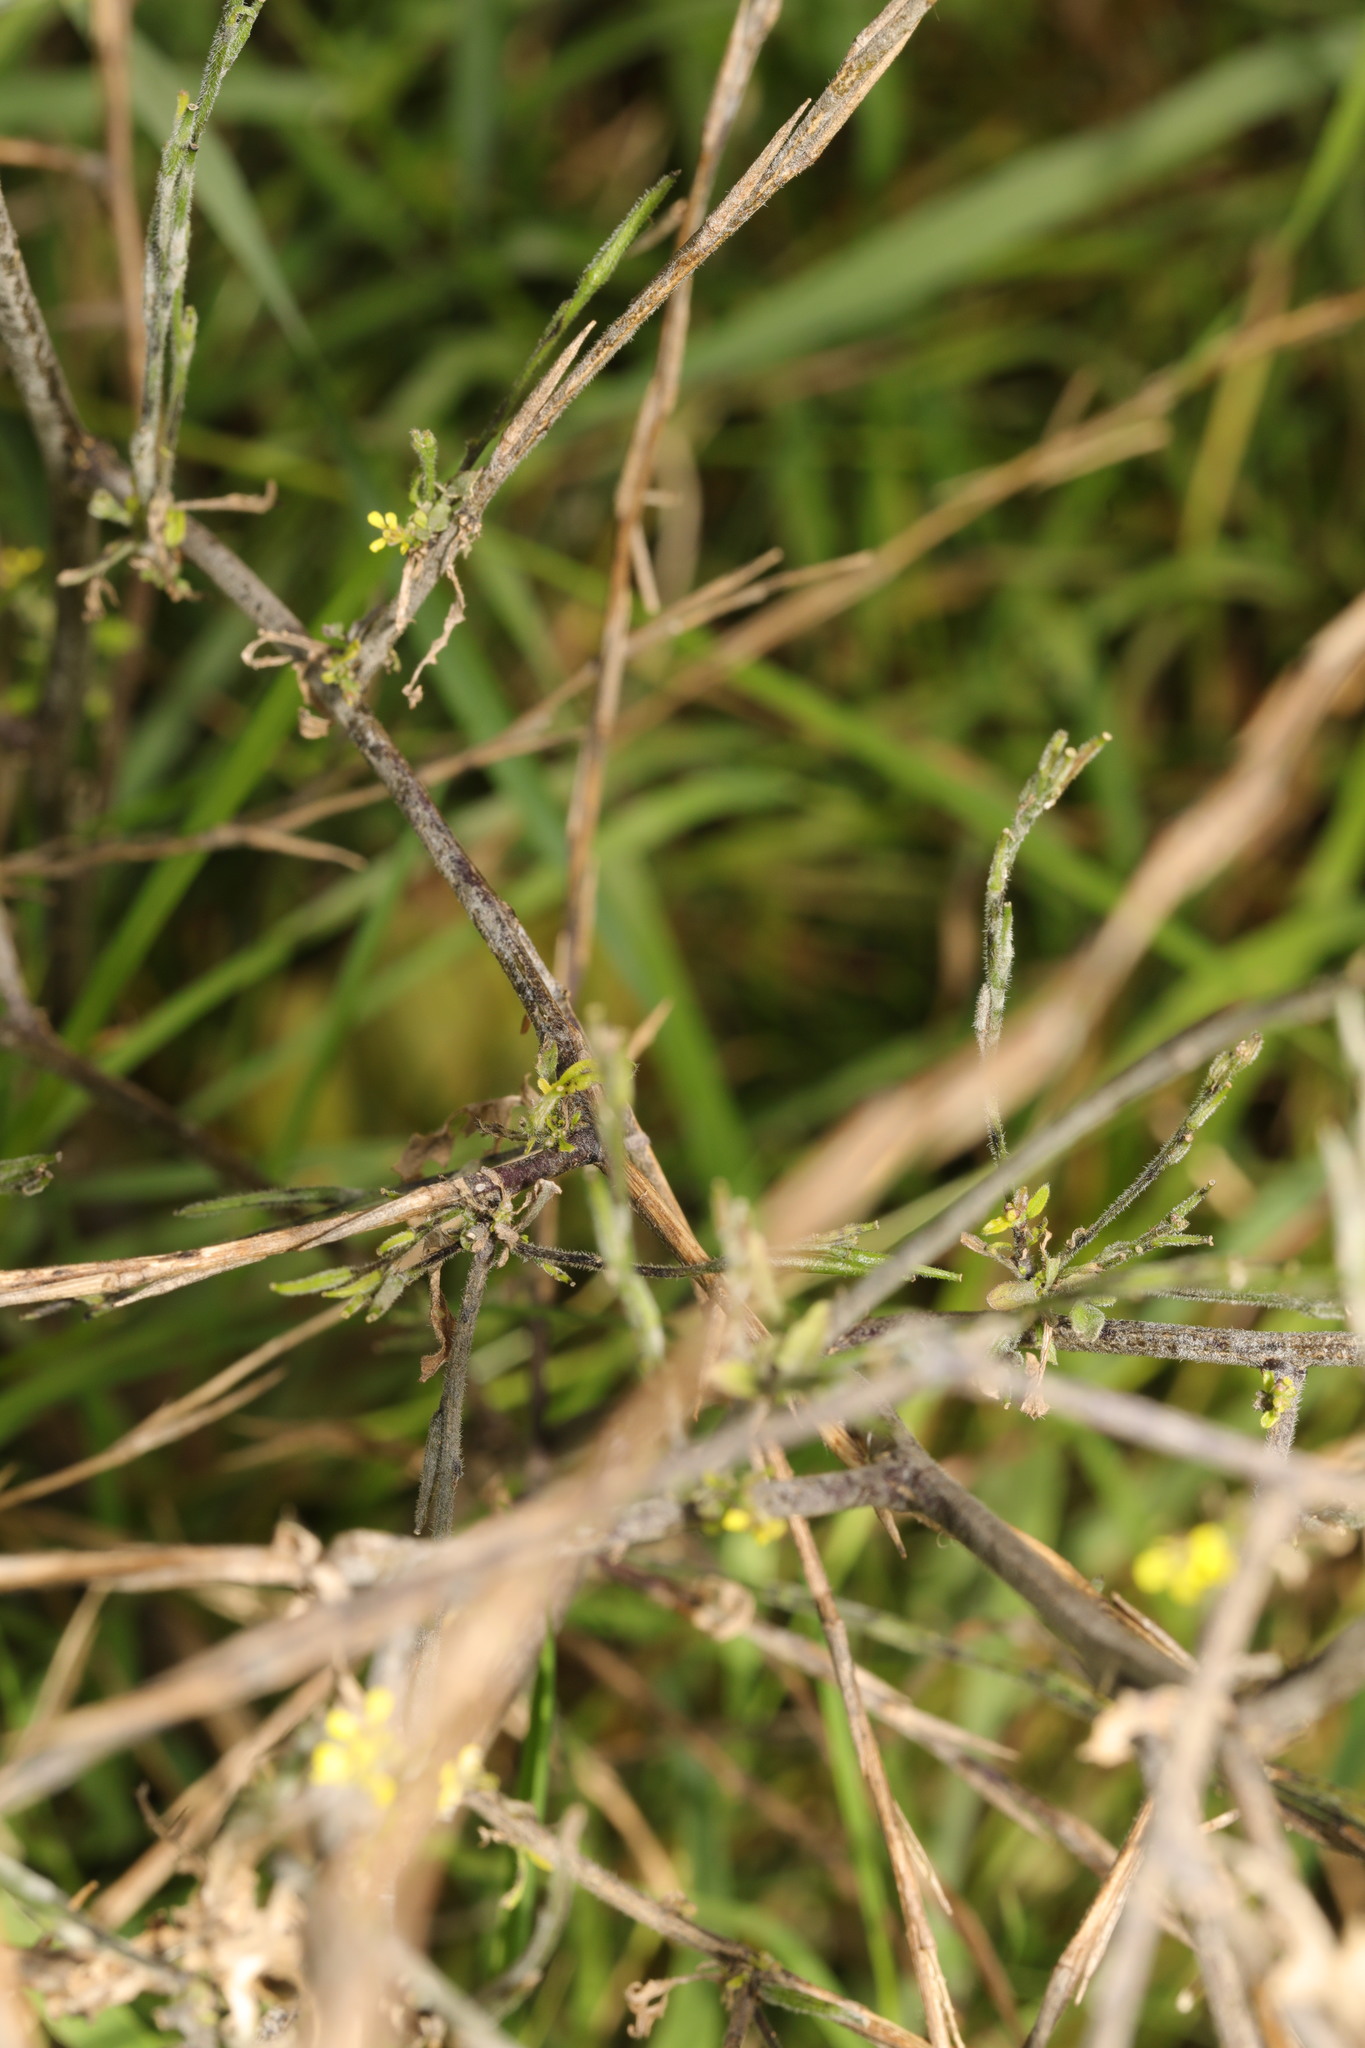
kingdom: Plantae
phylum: Tracheophyta
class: Magnoliopsida
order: Brassicales
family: Brassicaceae
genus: Sisymbrium
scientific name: Sisymbrium officinale
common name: Hedge mustard
